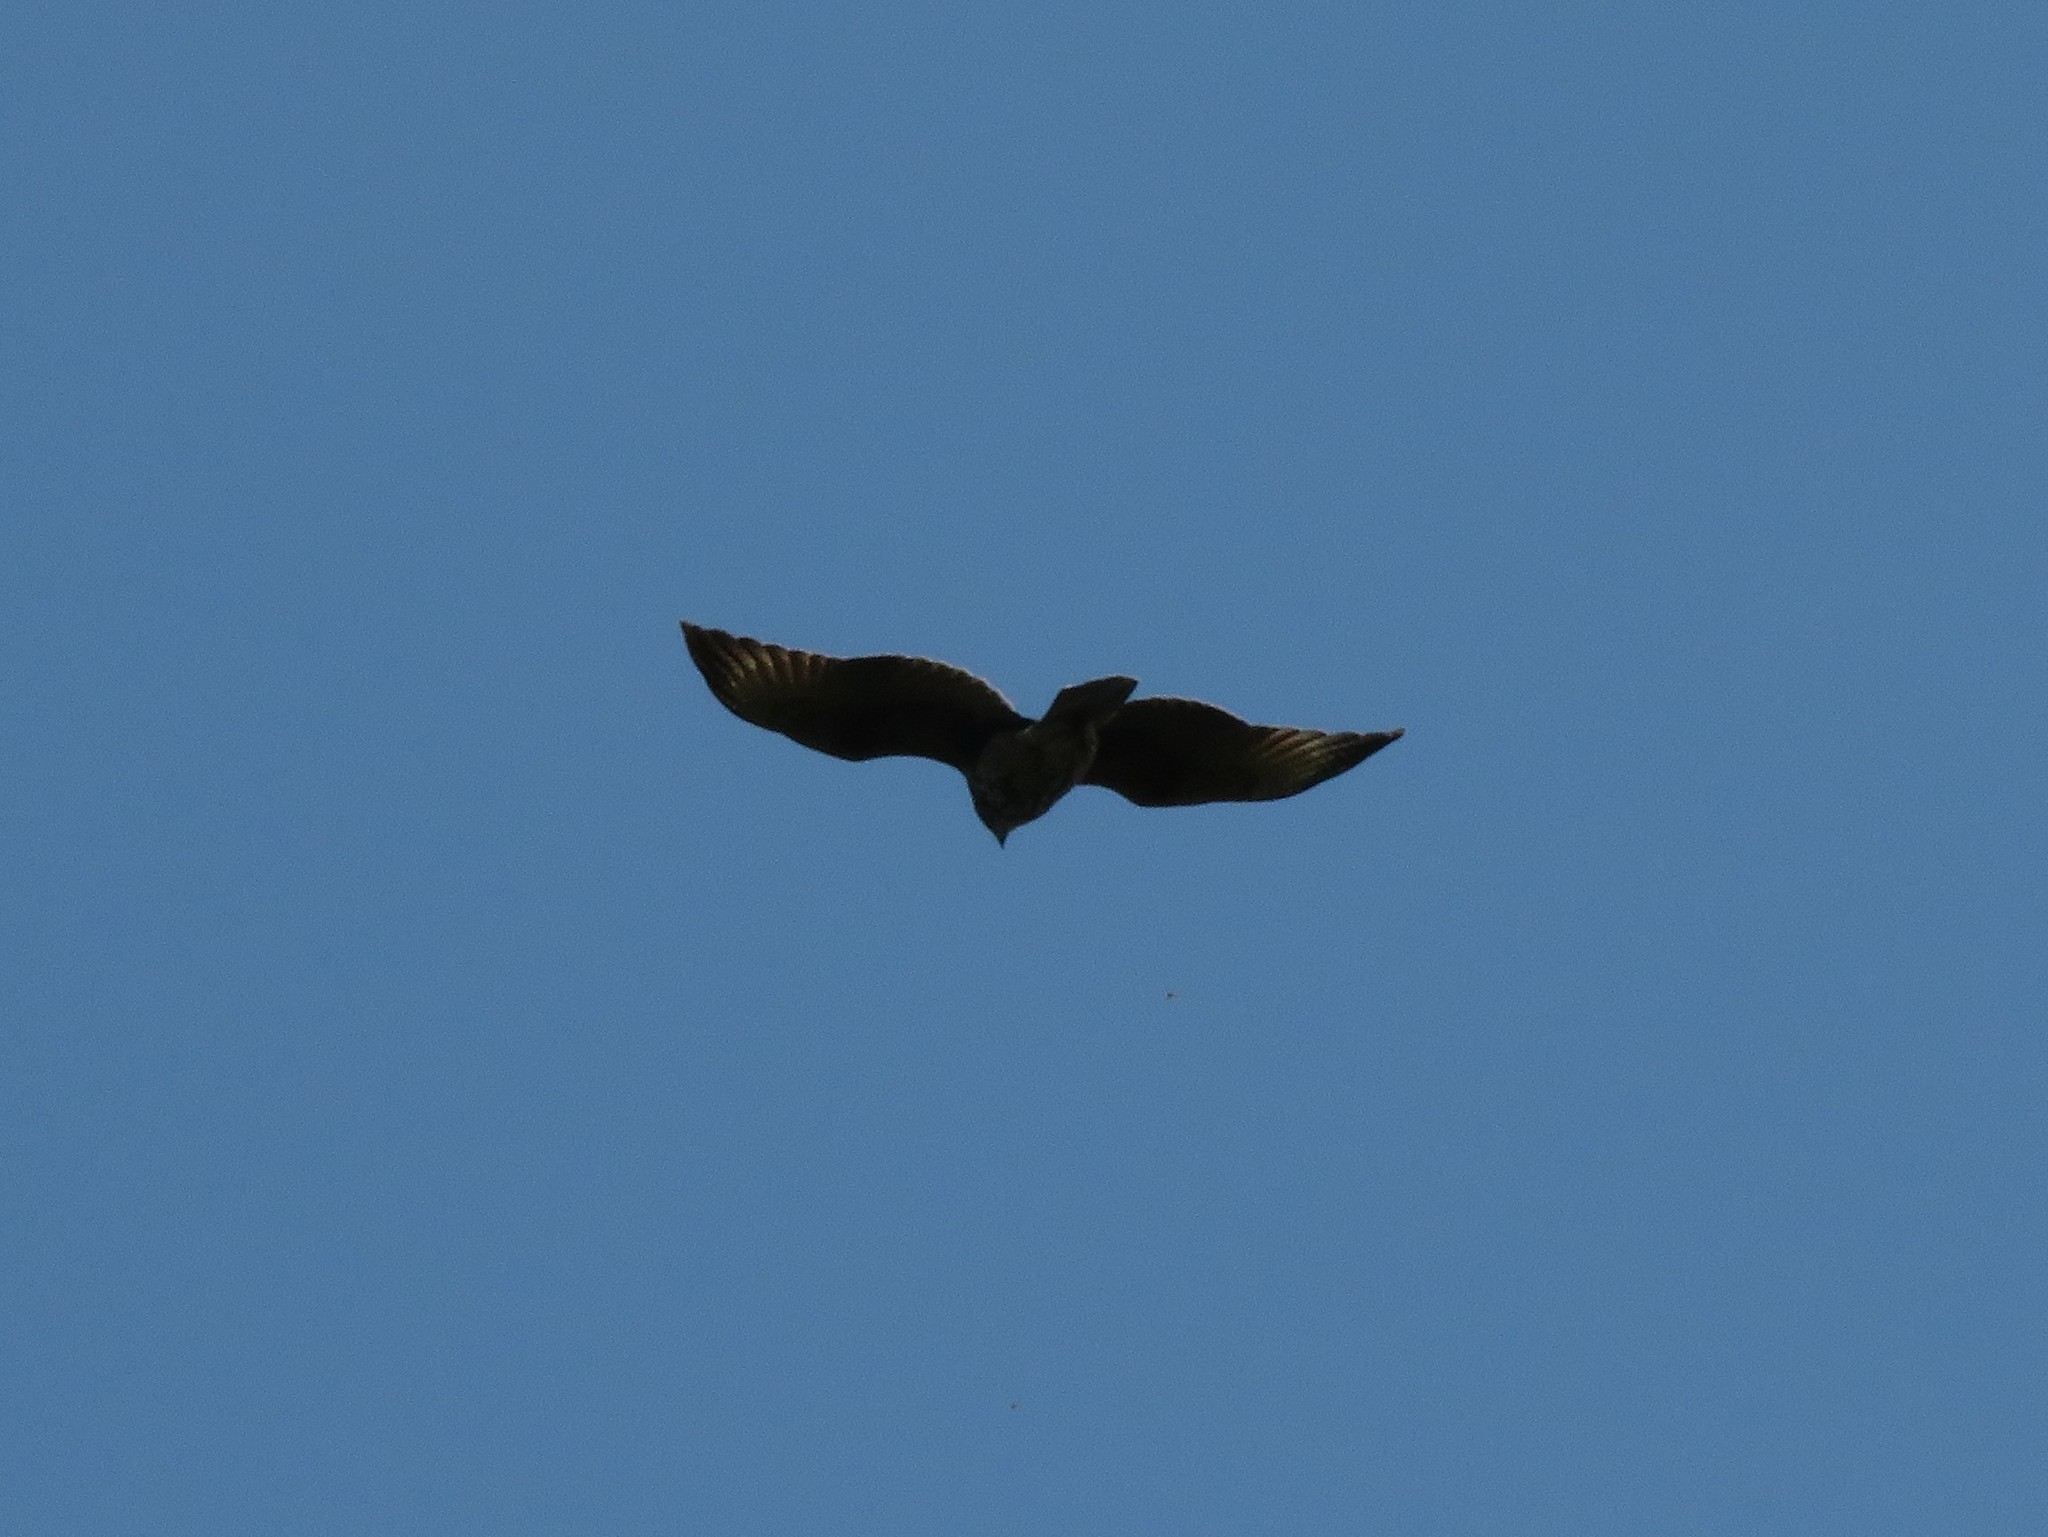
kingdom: Animalia
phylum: Chordata
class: Aves
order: Accipitriformes
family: Accipitridae
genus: Parabuteo
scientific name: Parabuteo unicinctus
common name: Harris's hawk
